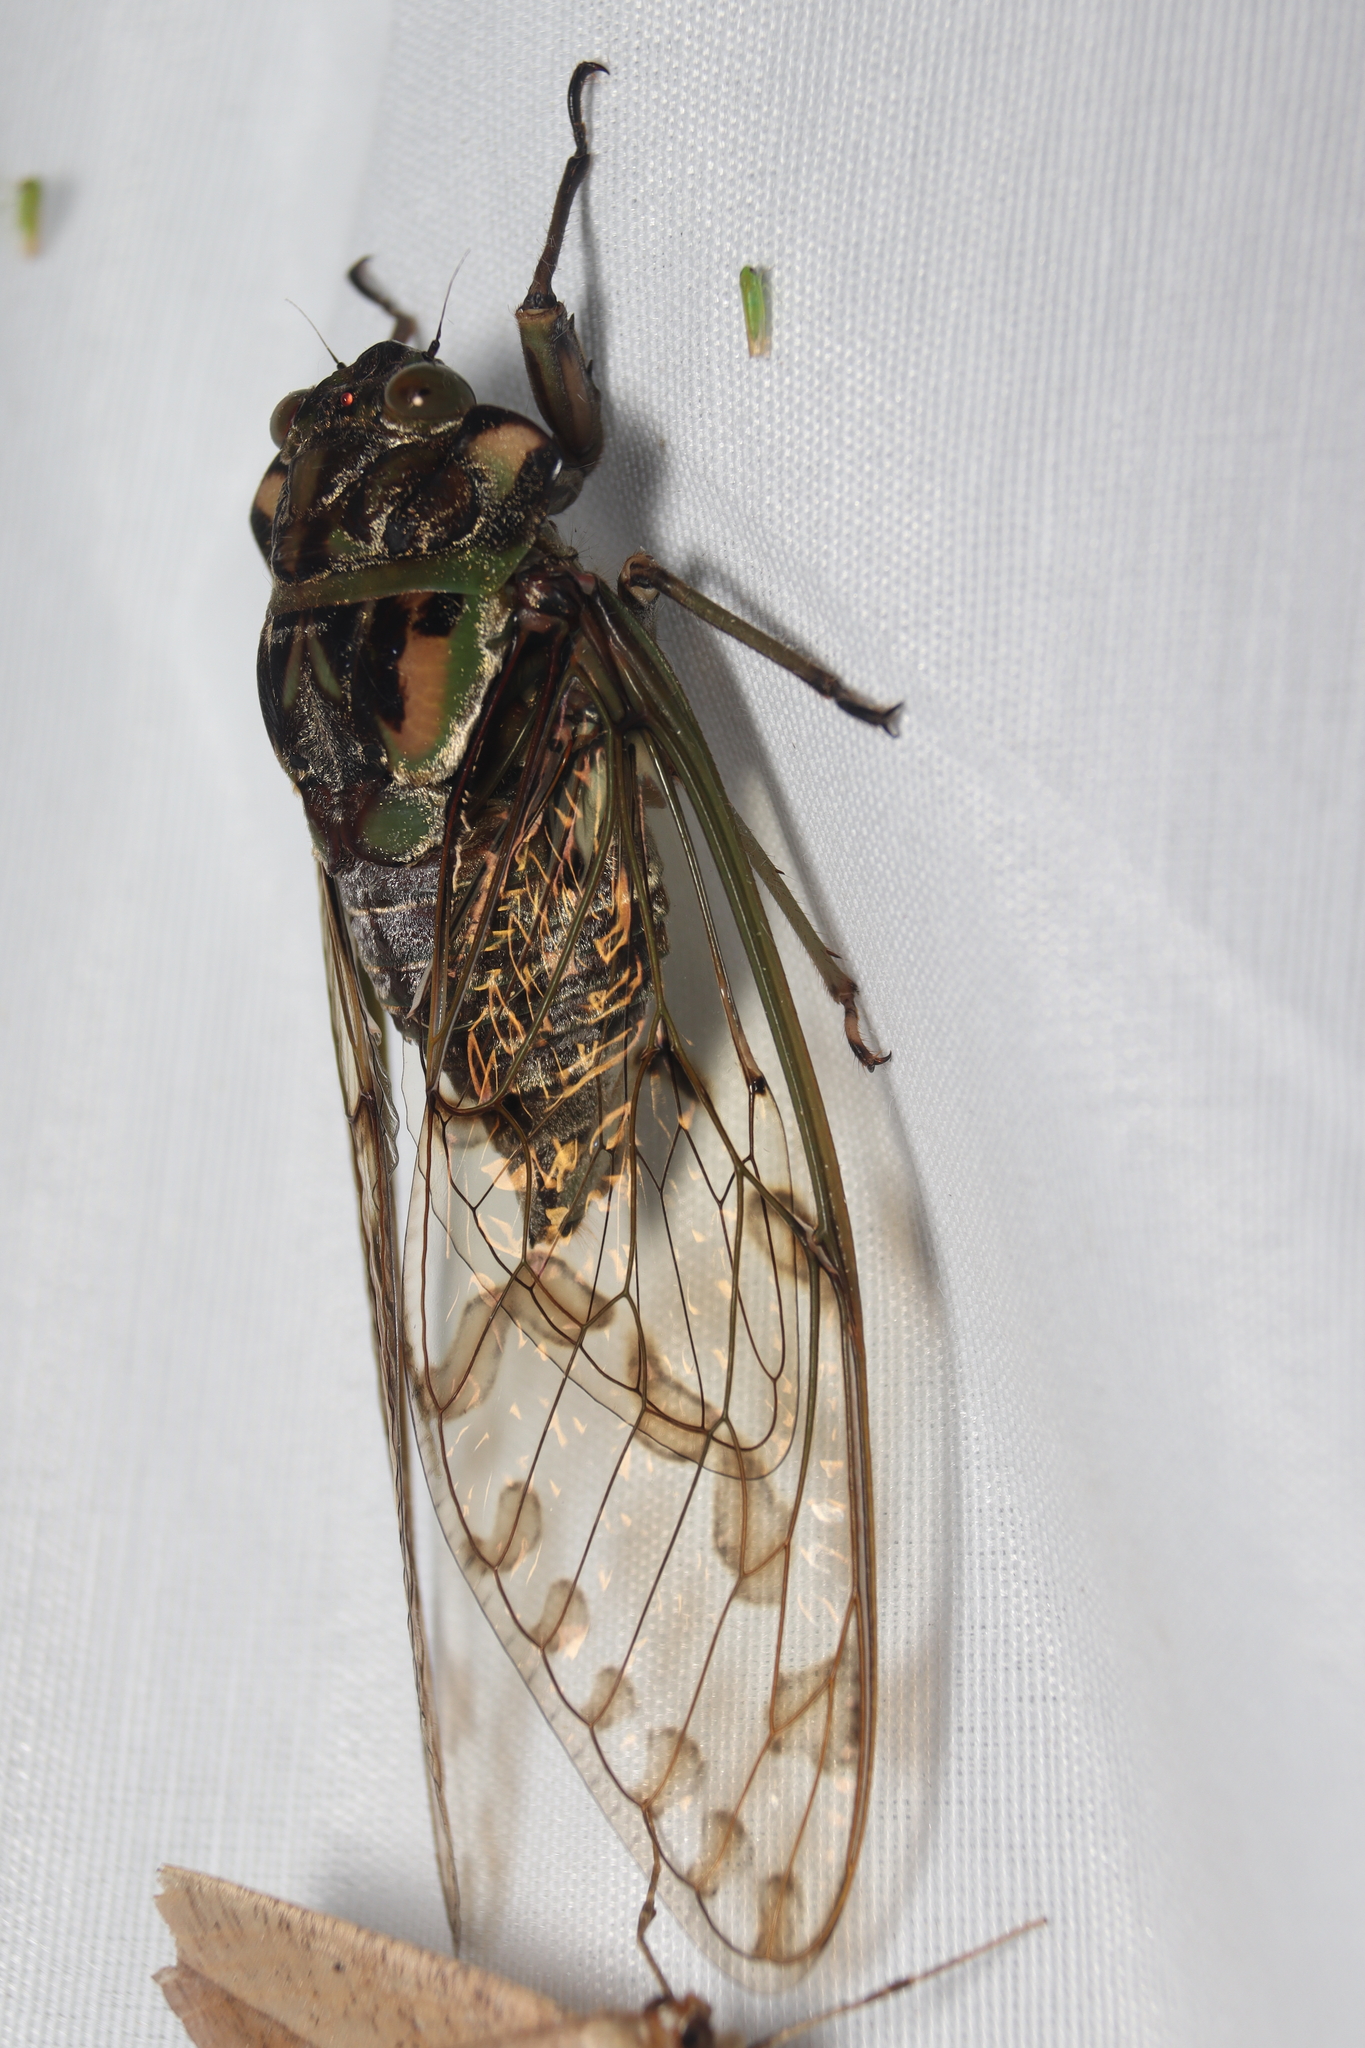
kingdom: Animalia
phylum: Arthropoda
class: Insecta
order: Hemiptera
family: Cicadidae
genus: Orellana
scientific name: Orellana
